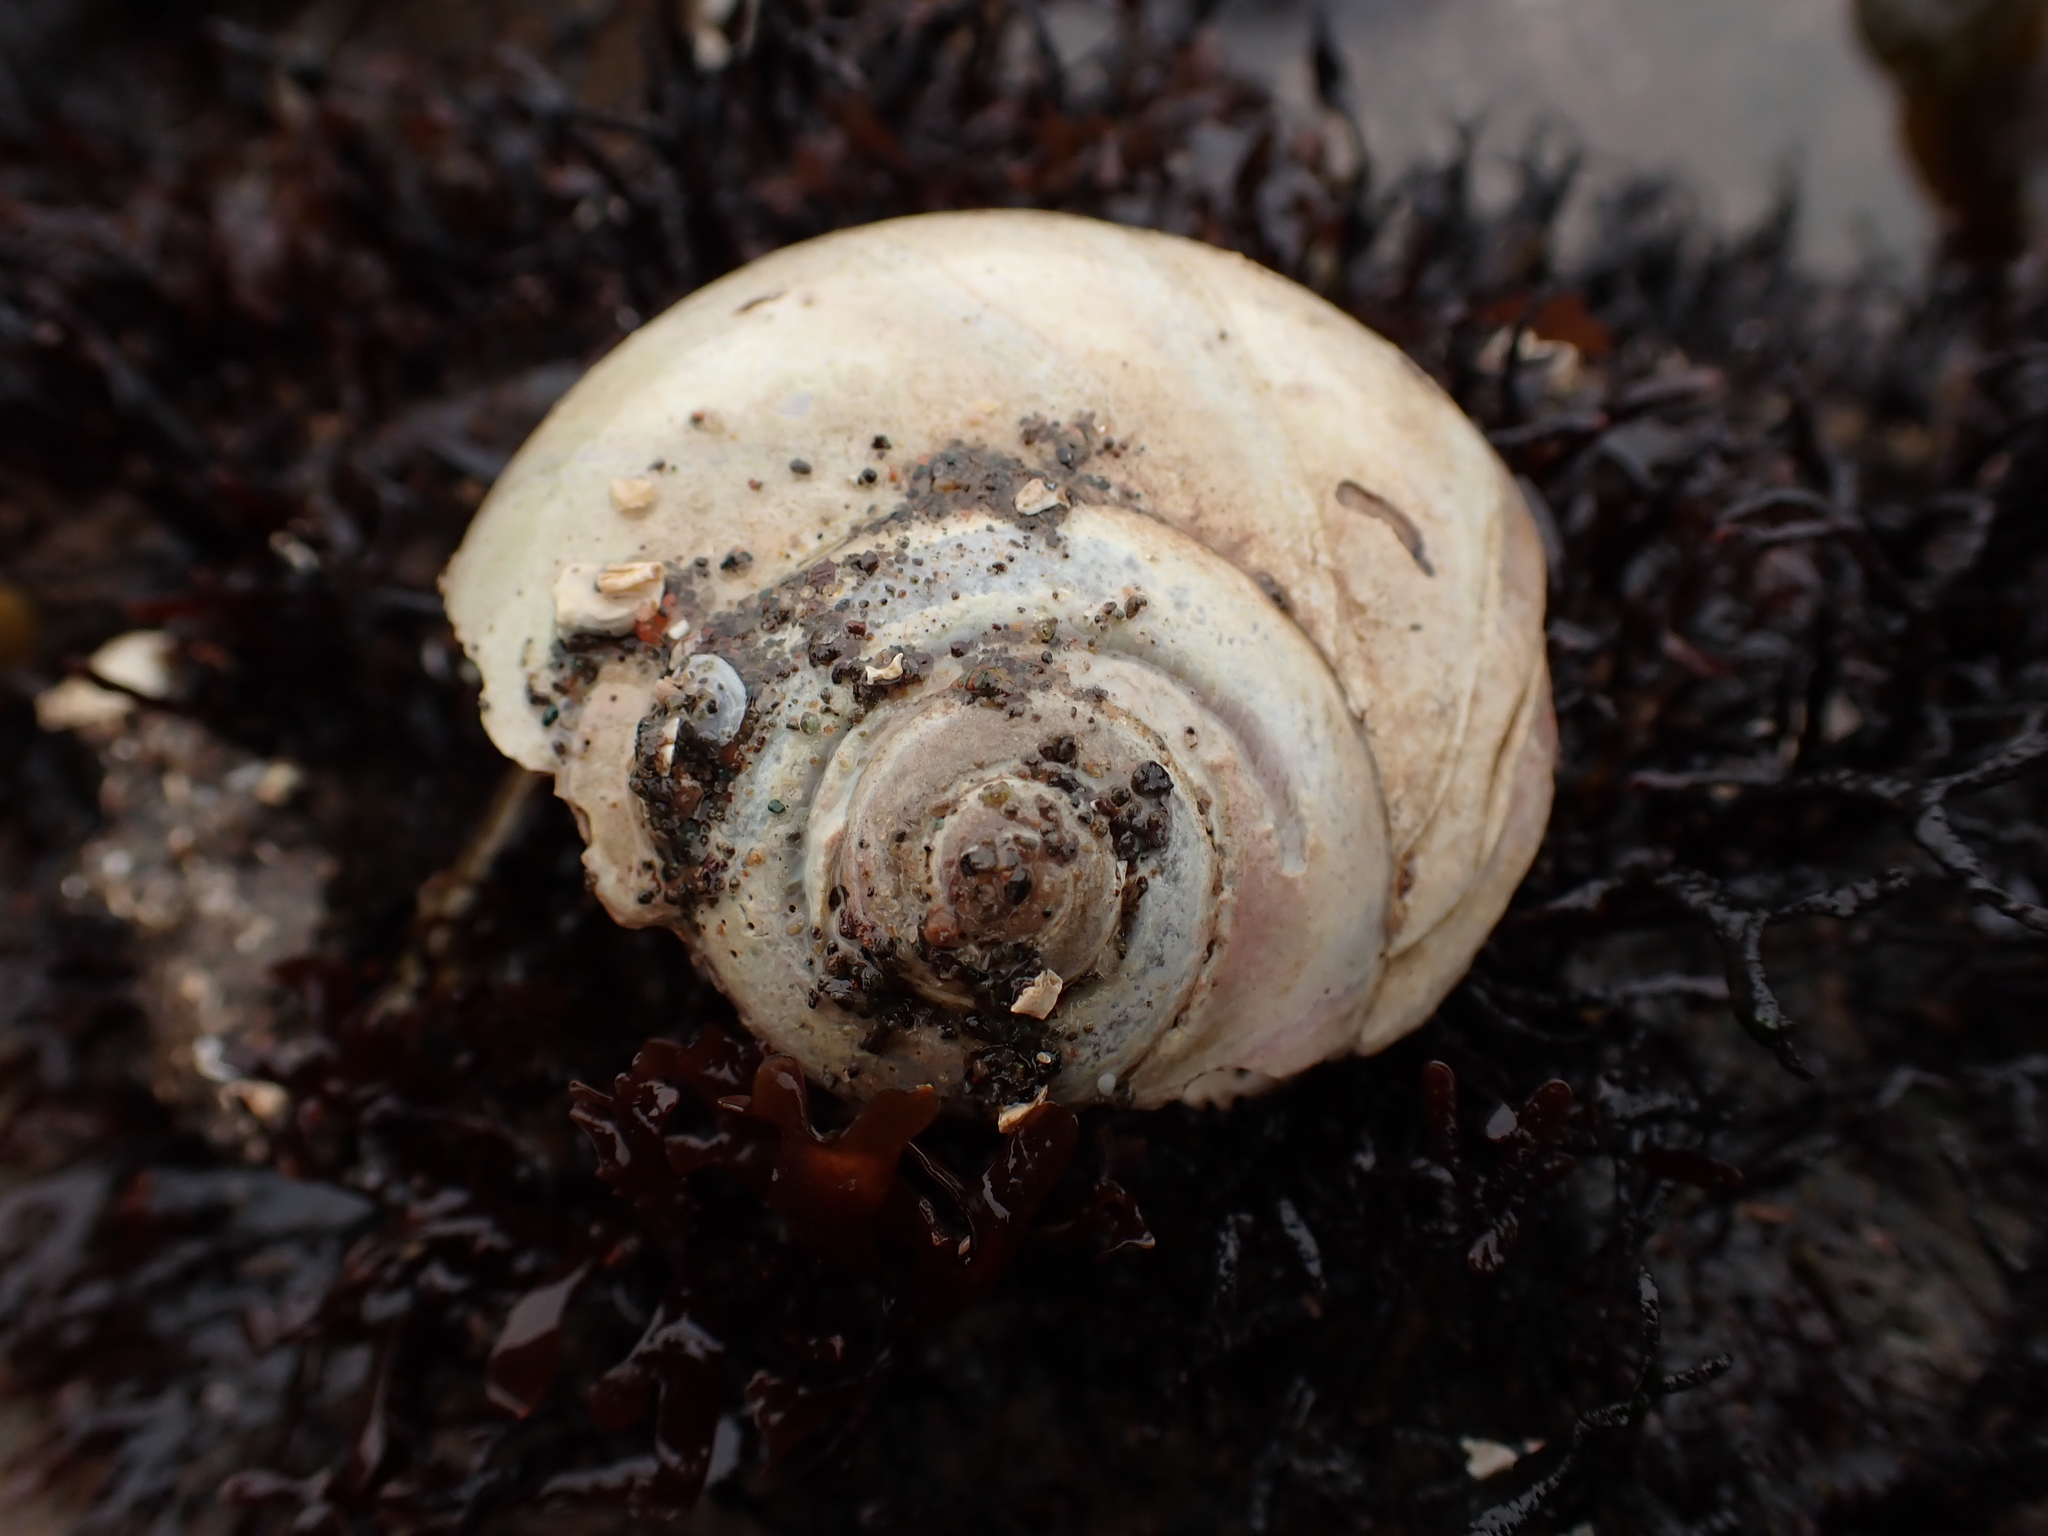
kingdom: Animalia
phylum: Mollusca
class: Gastropoda
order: Littorinimorpha
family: Naticidae
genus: Euspira
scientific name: Euspira heros
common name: Common northern moonsnail
